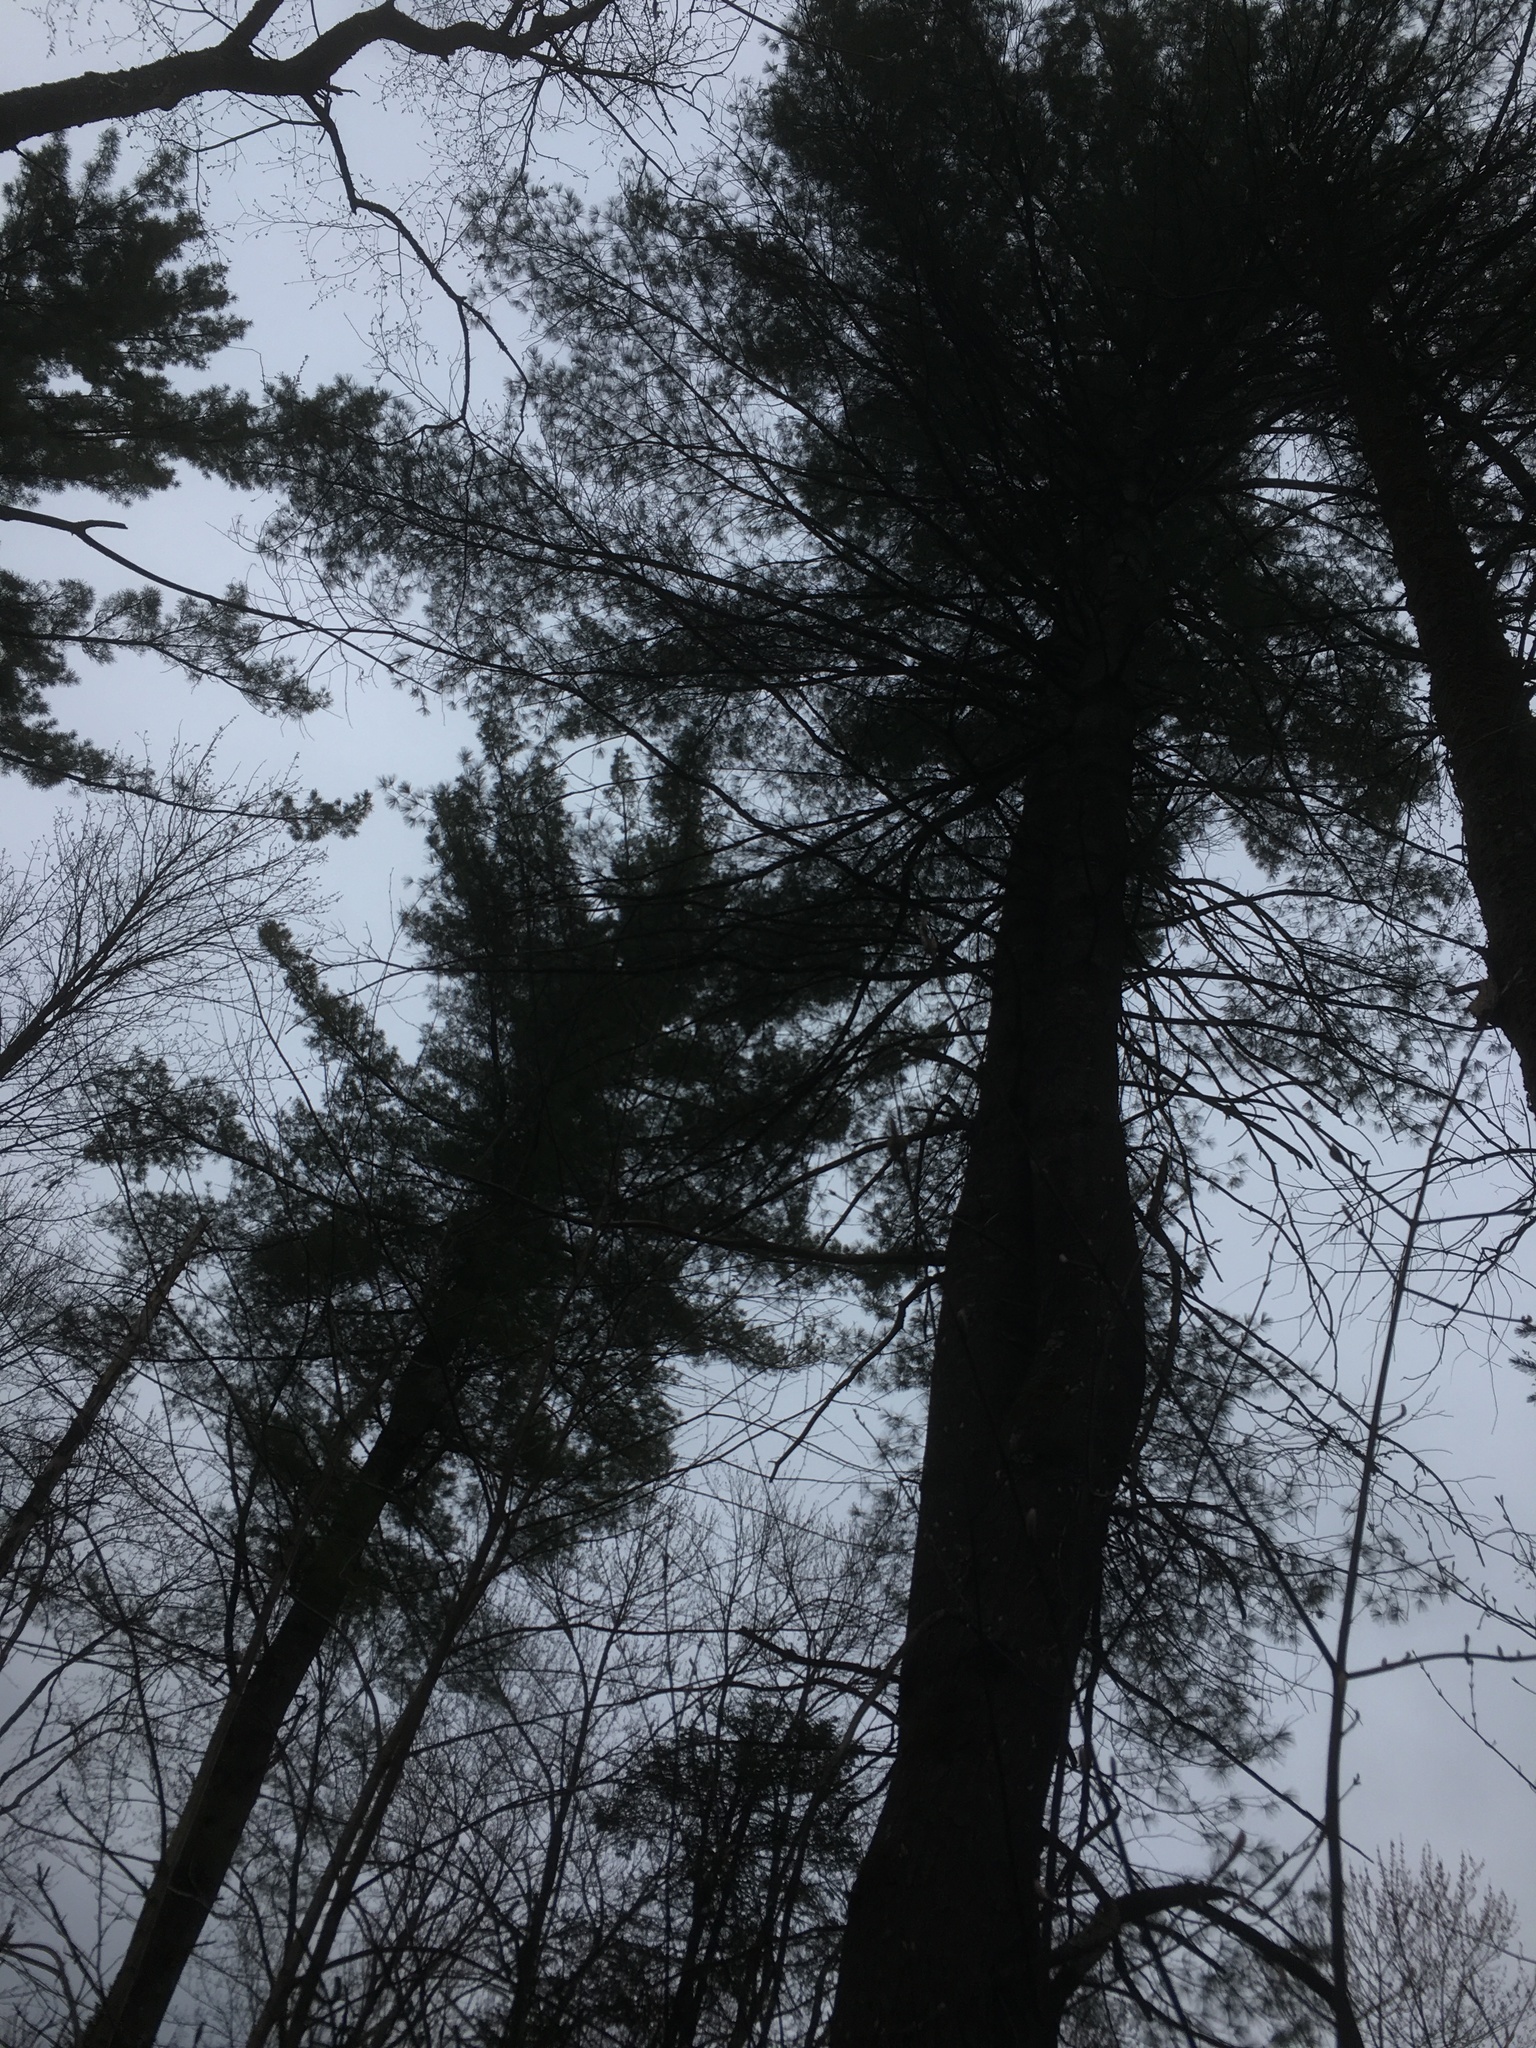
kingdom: Plantae
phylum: Tracheophyta
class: Pinopsida
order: Pinales
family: Pinaceae
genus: Pinus
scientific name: Pinus strobus
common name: Weymouth pine
